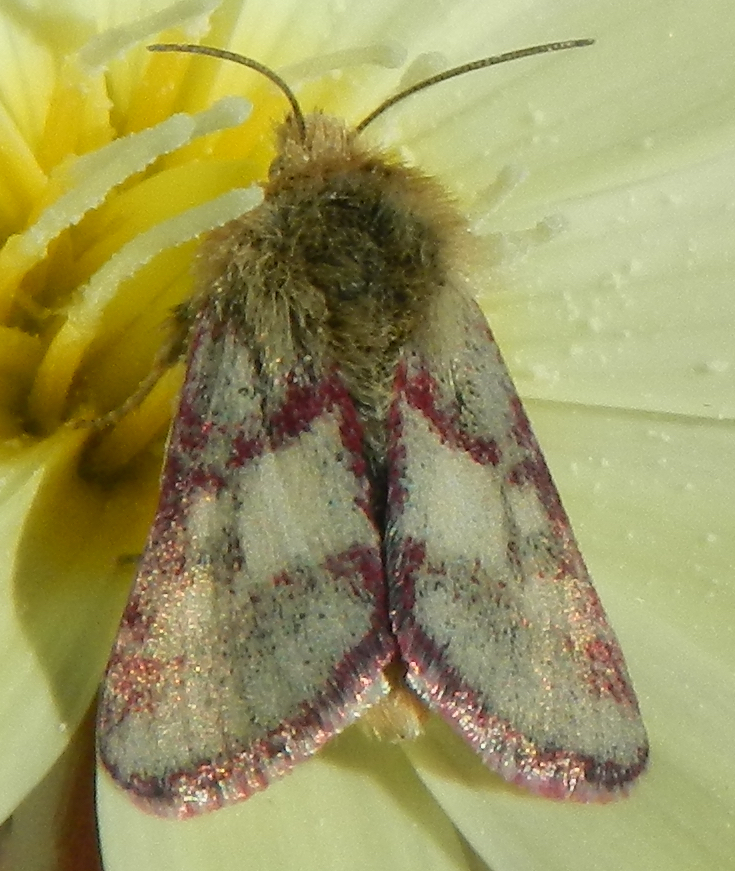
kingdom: Animalia
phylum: Arthropoda
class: Insecta
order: Lepidoptera
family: Noctuidae
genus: Heliolonche
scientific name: Heliolonche pictipennis
